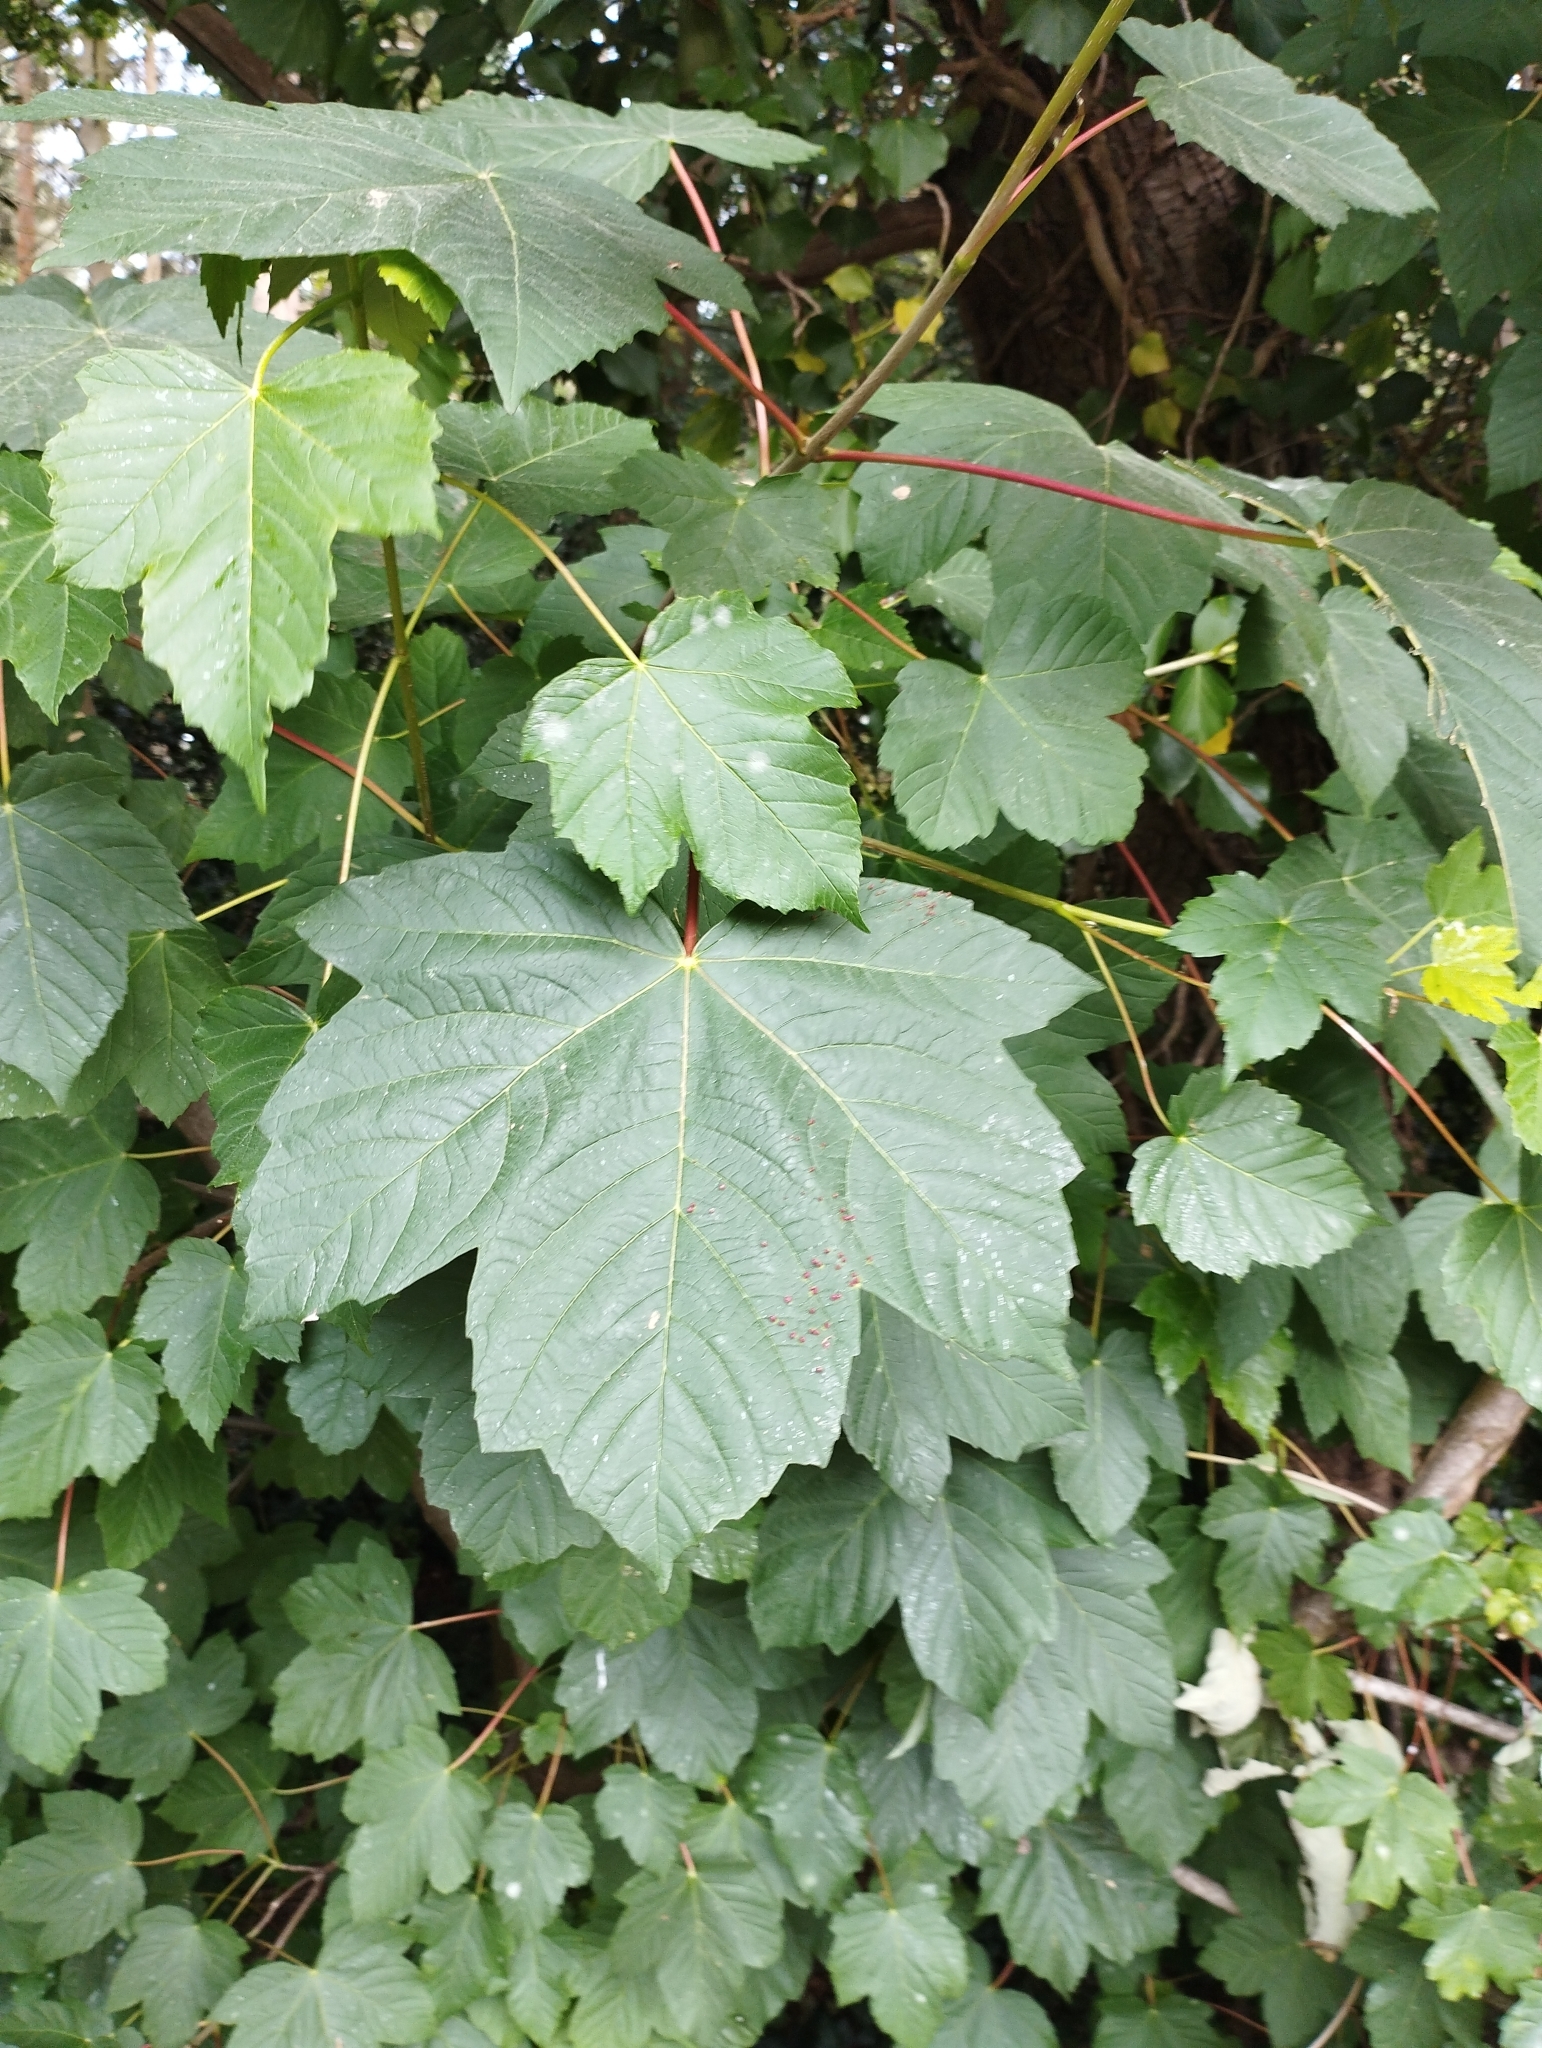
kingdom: Plantae
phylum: Tracheophyta
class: Magnoliopsida
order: Sapindales
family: Sapindaceae
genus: Acer
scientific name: Acer pseudoplatanus
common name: Sycamore
